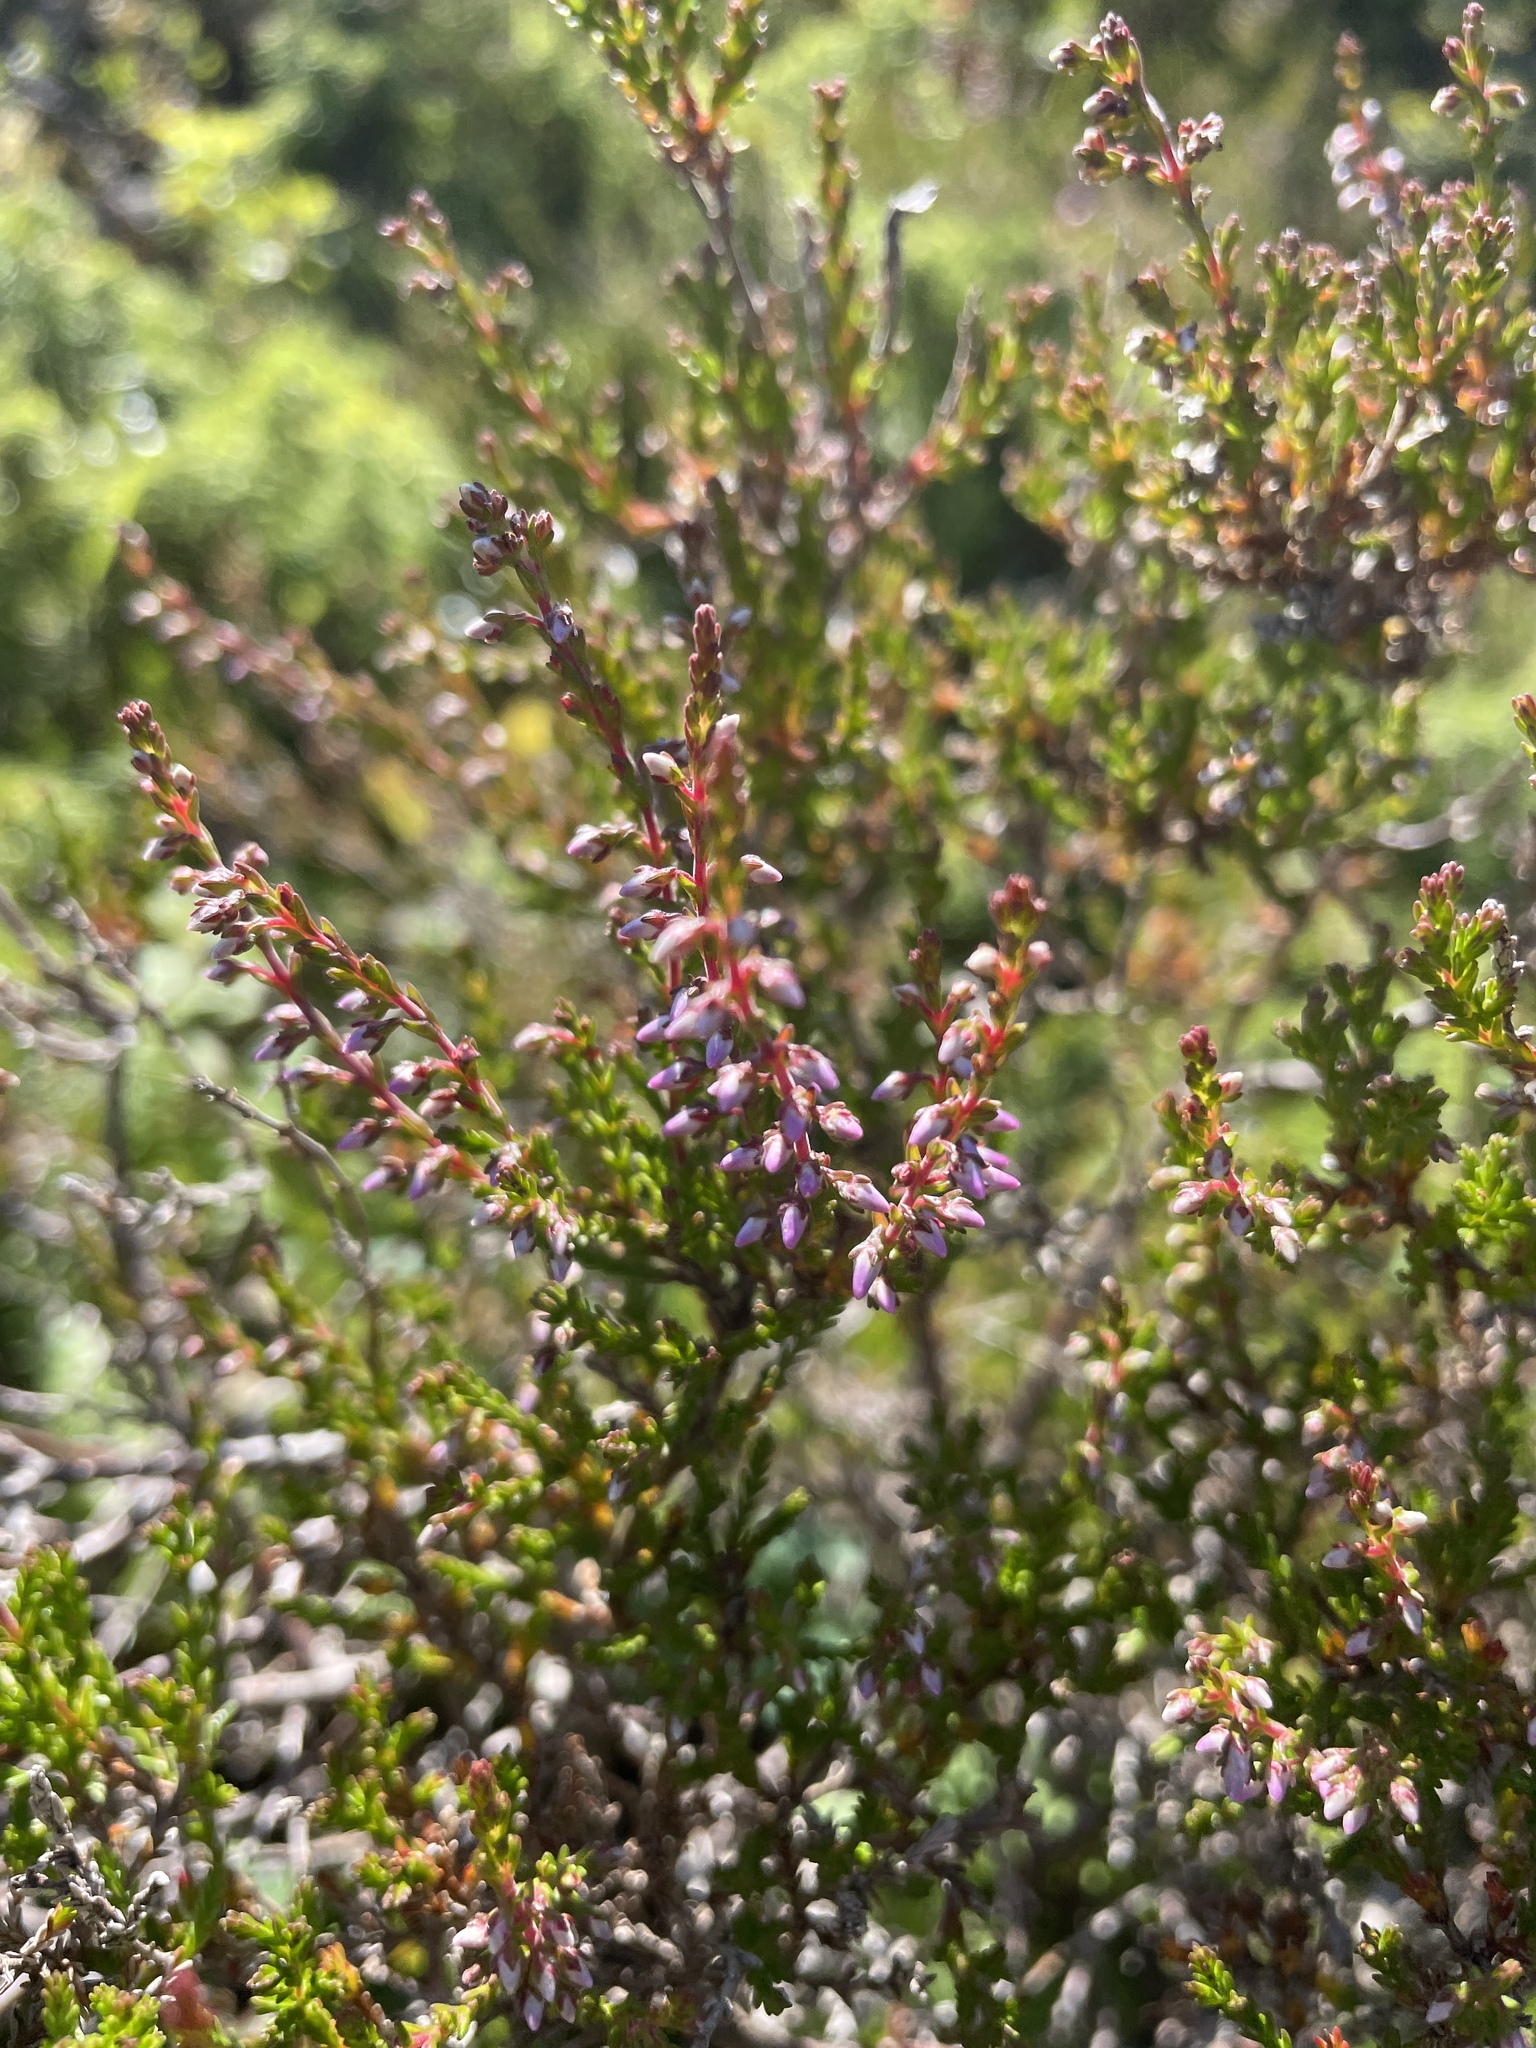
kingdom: Plantae
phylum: Tracheophyta
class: Magnoliopsida
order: Ericales
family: Ericaceae
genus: Calluna
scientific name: Calluna vulgaris
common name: Heather
